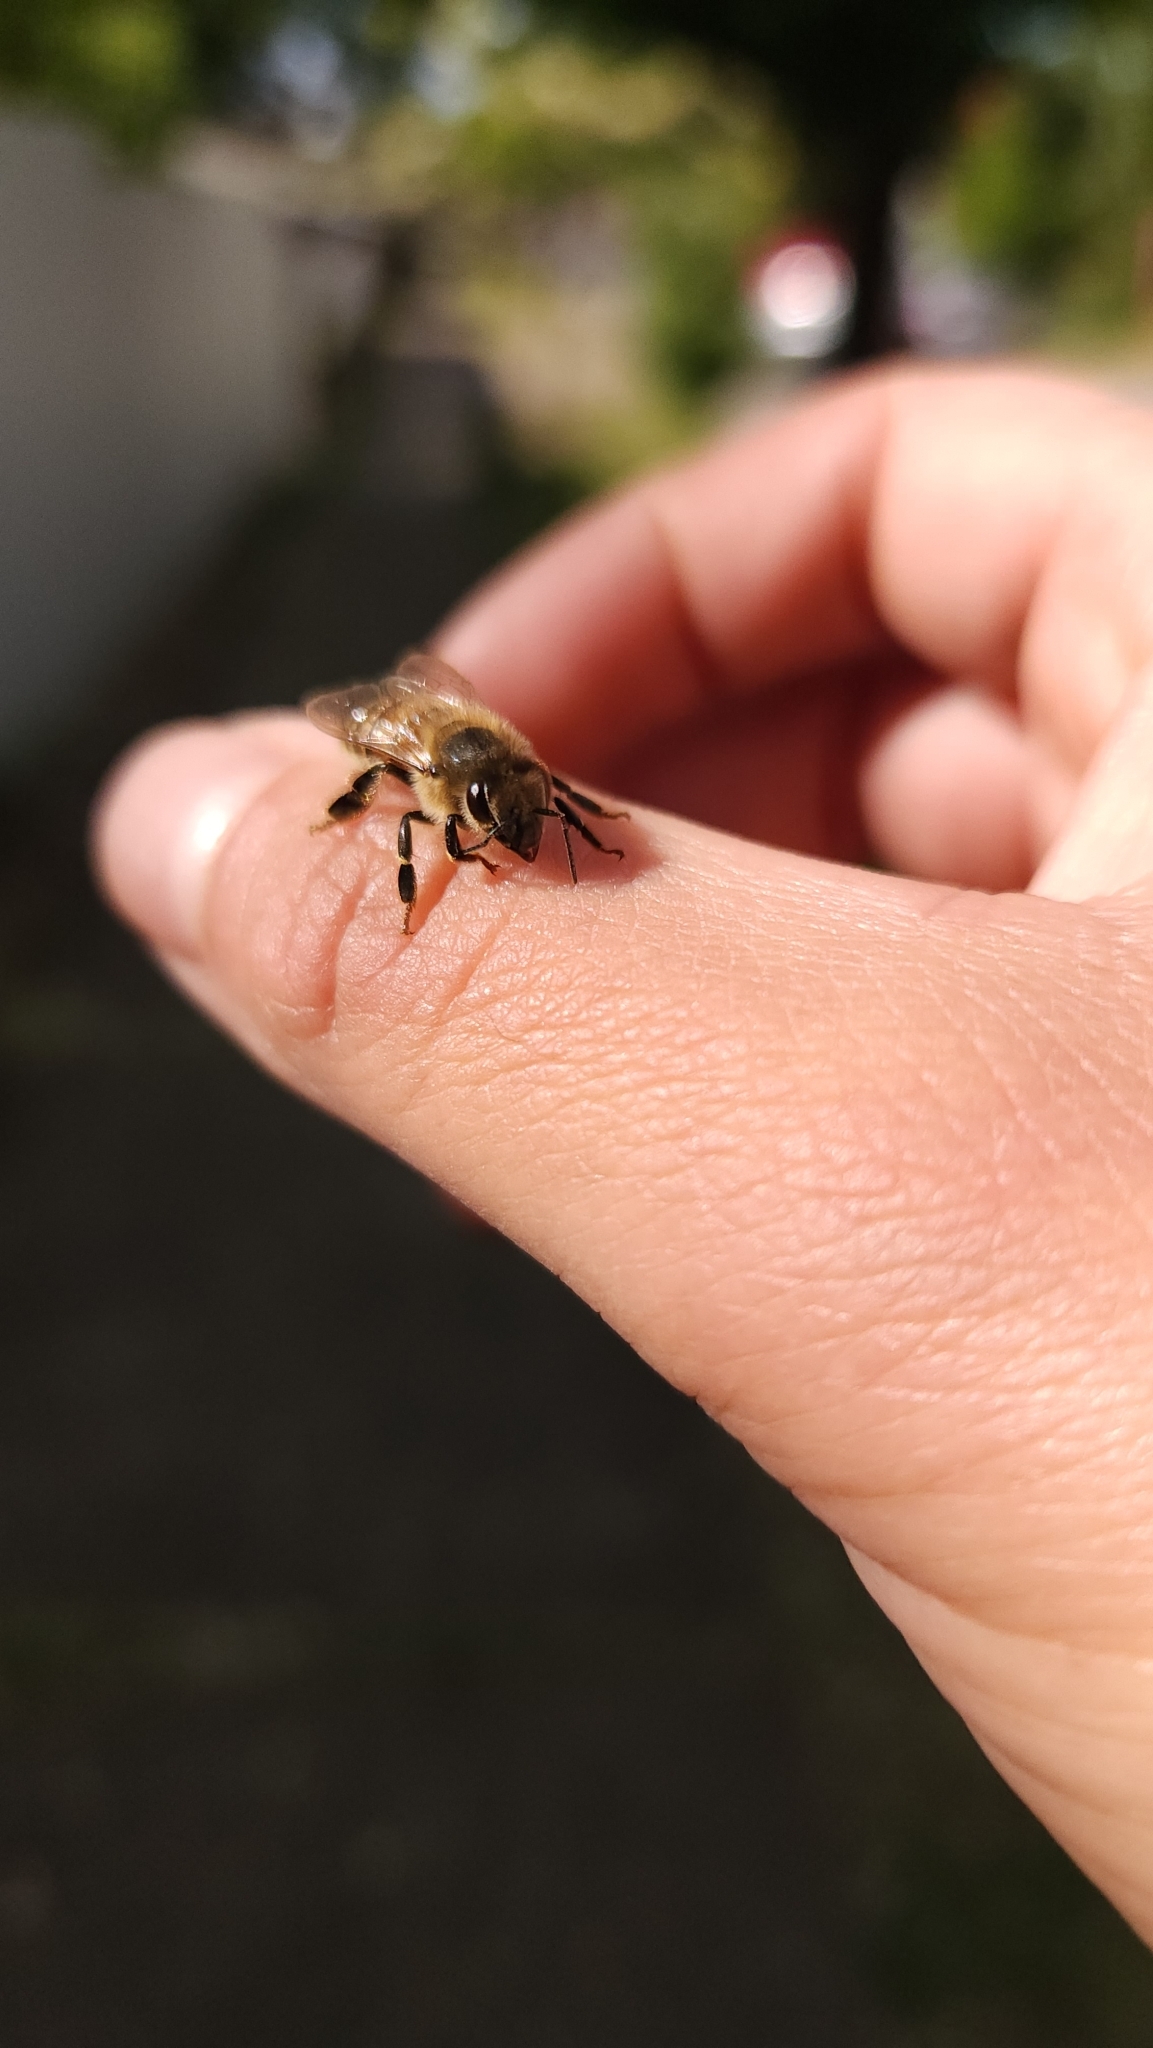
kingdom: Animalia
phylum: Arthropoda
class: Insecta
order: Hymenoptera
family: Apidae
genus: Apis
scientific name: Apis mellifera
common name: Honey bee
